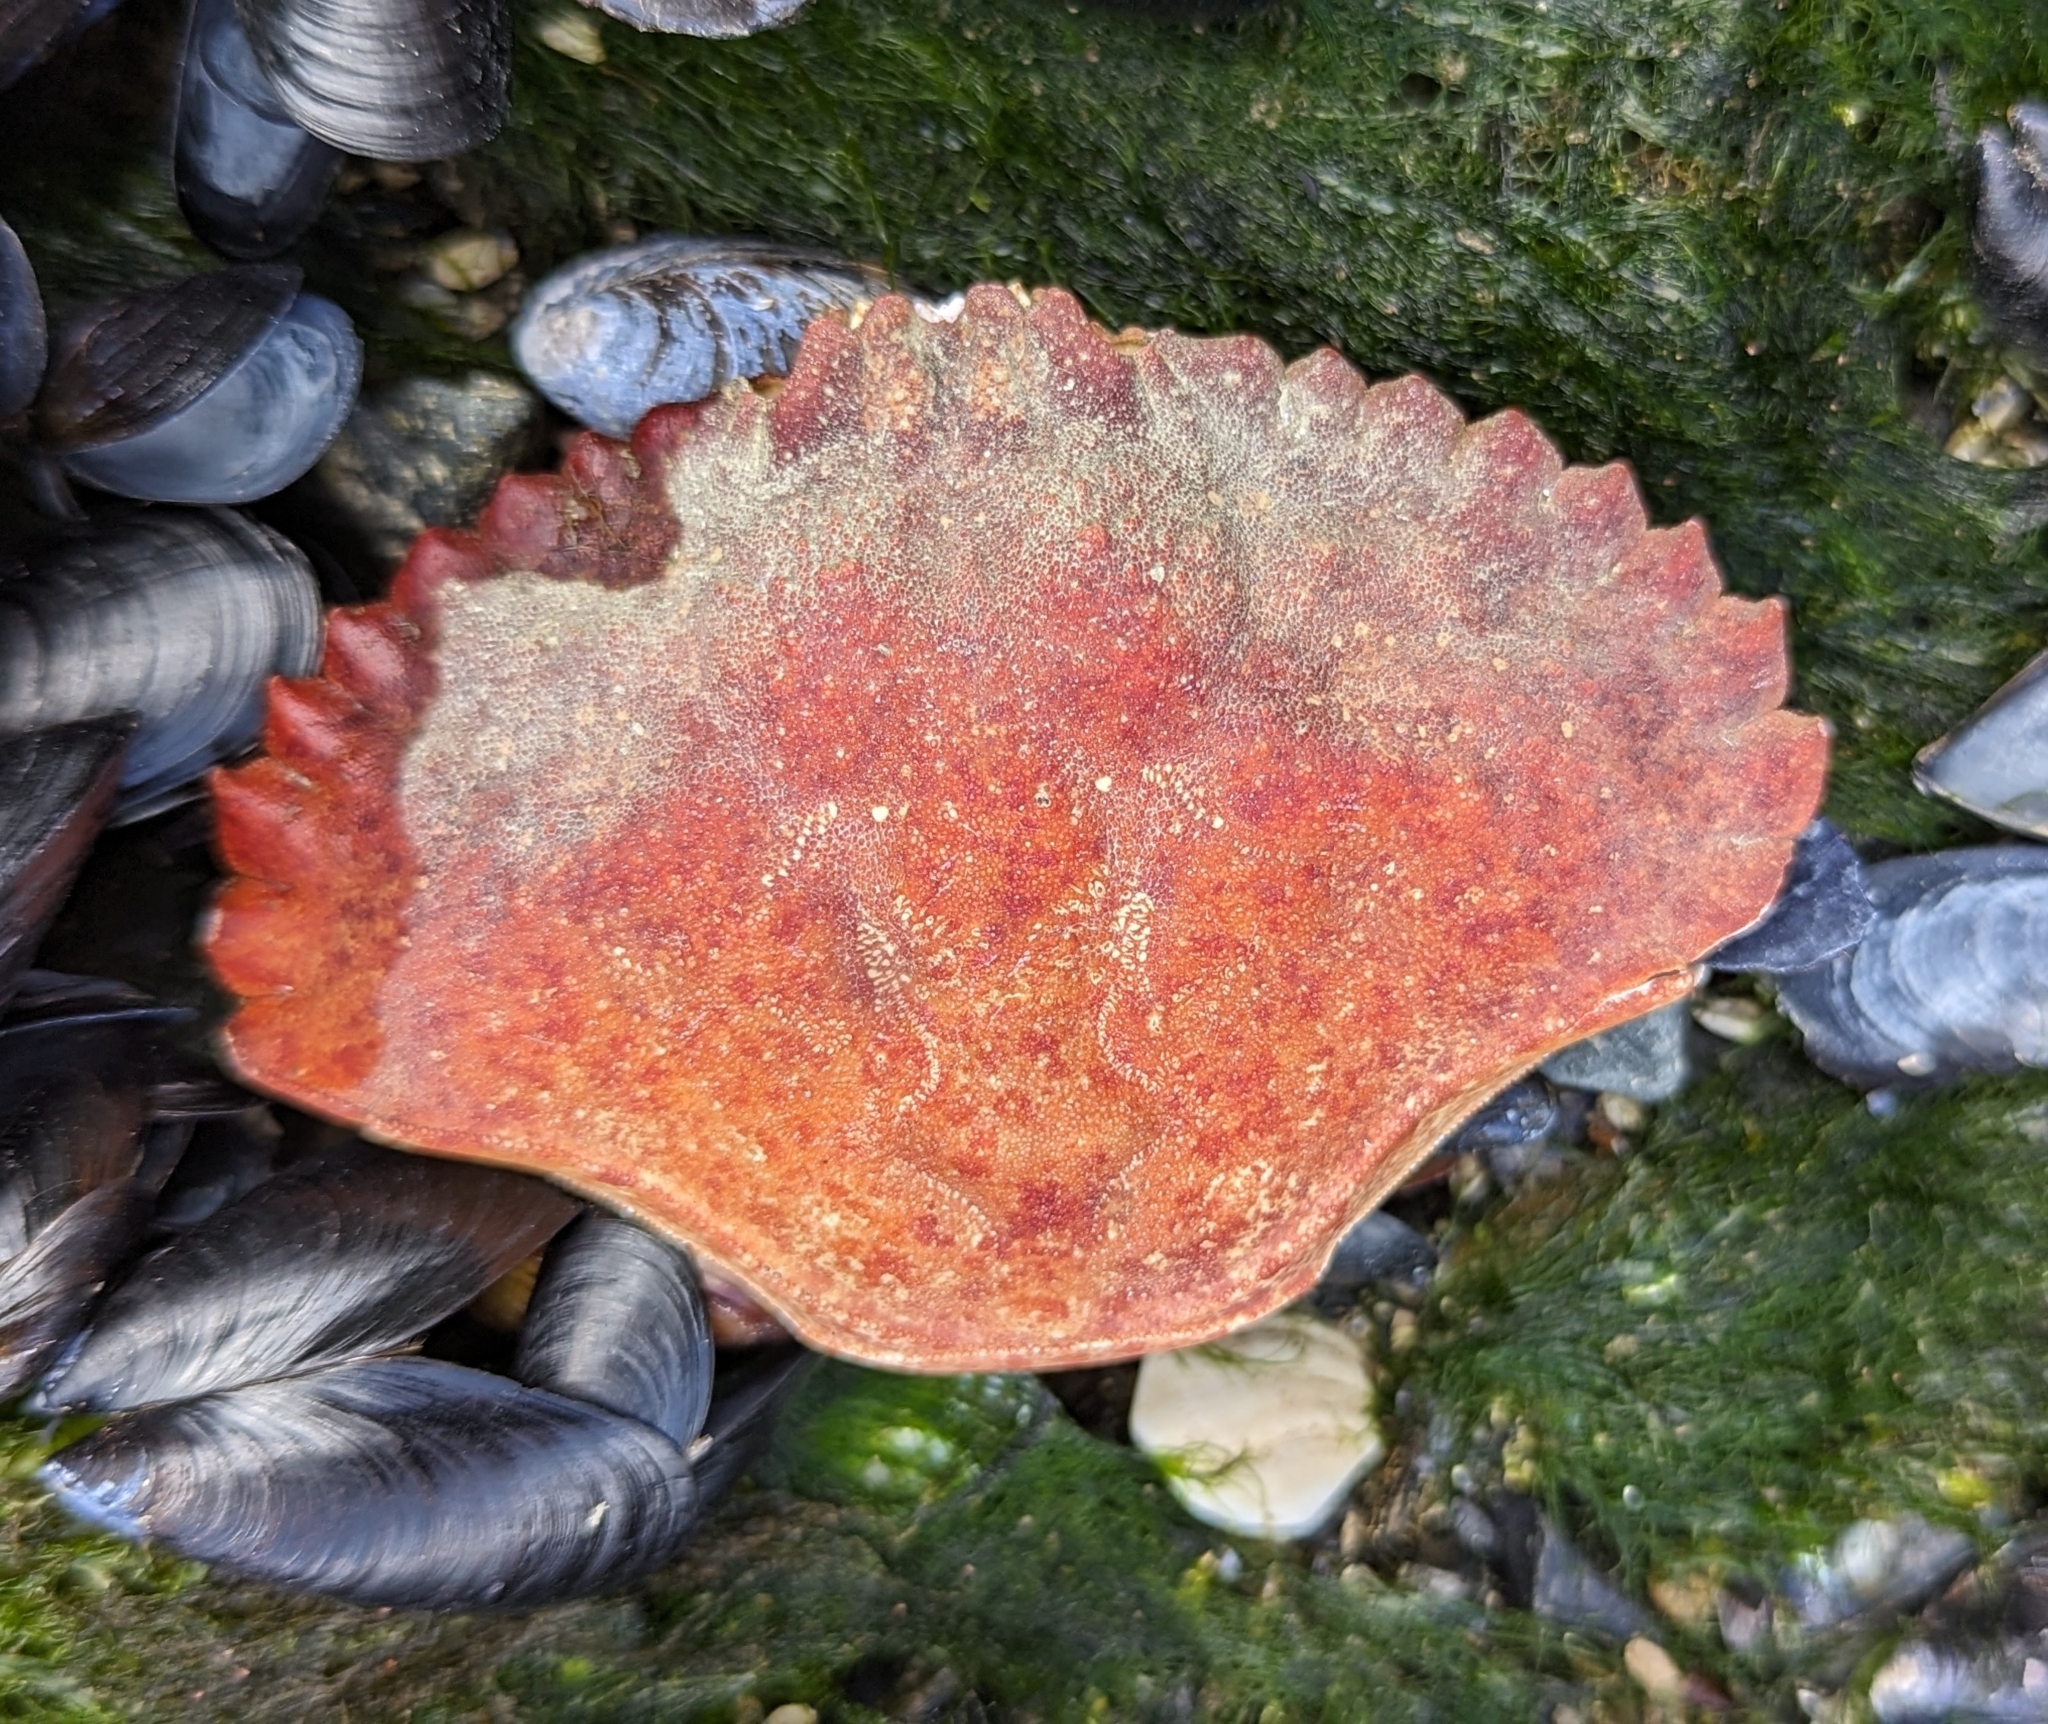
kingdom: Animalia
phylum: Arthropoda
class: Malacostraca
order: Decapoda
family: Cancridae
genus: Cancer
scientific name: Cancer productus
